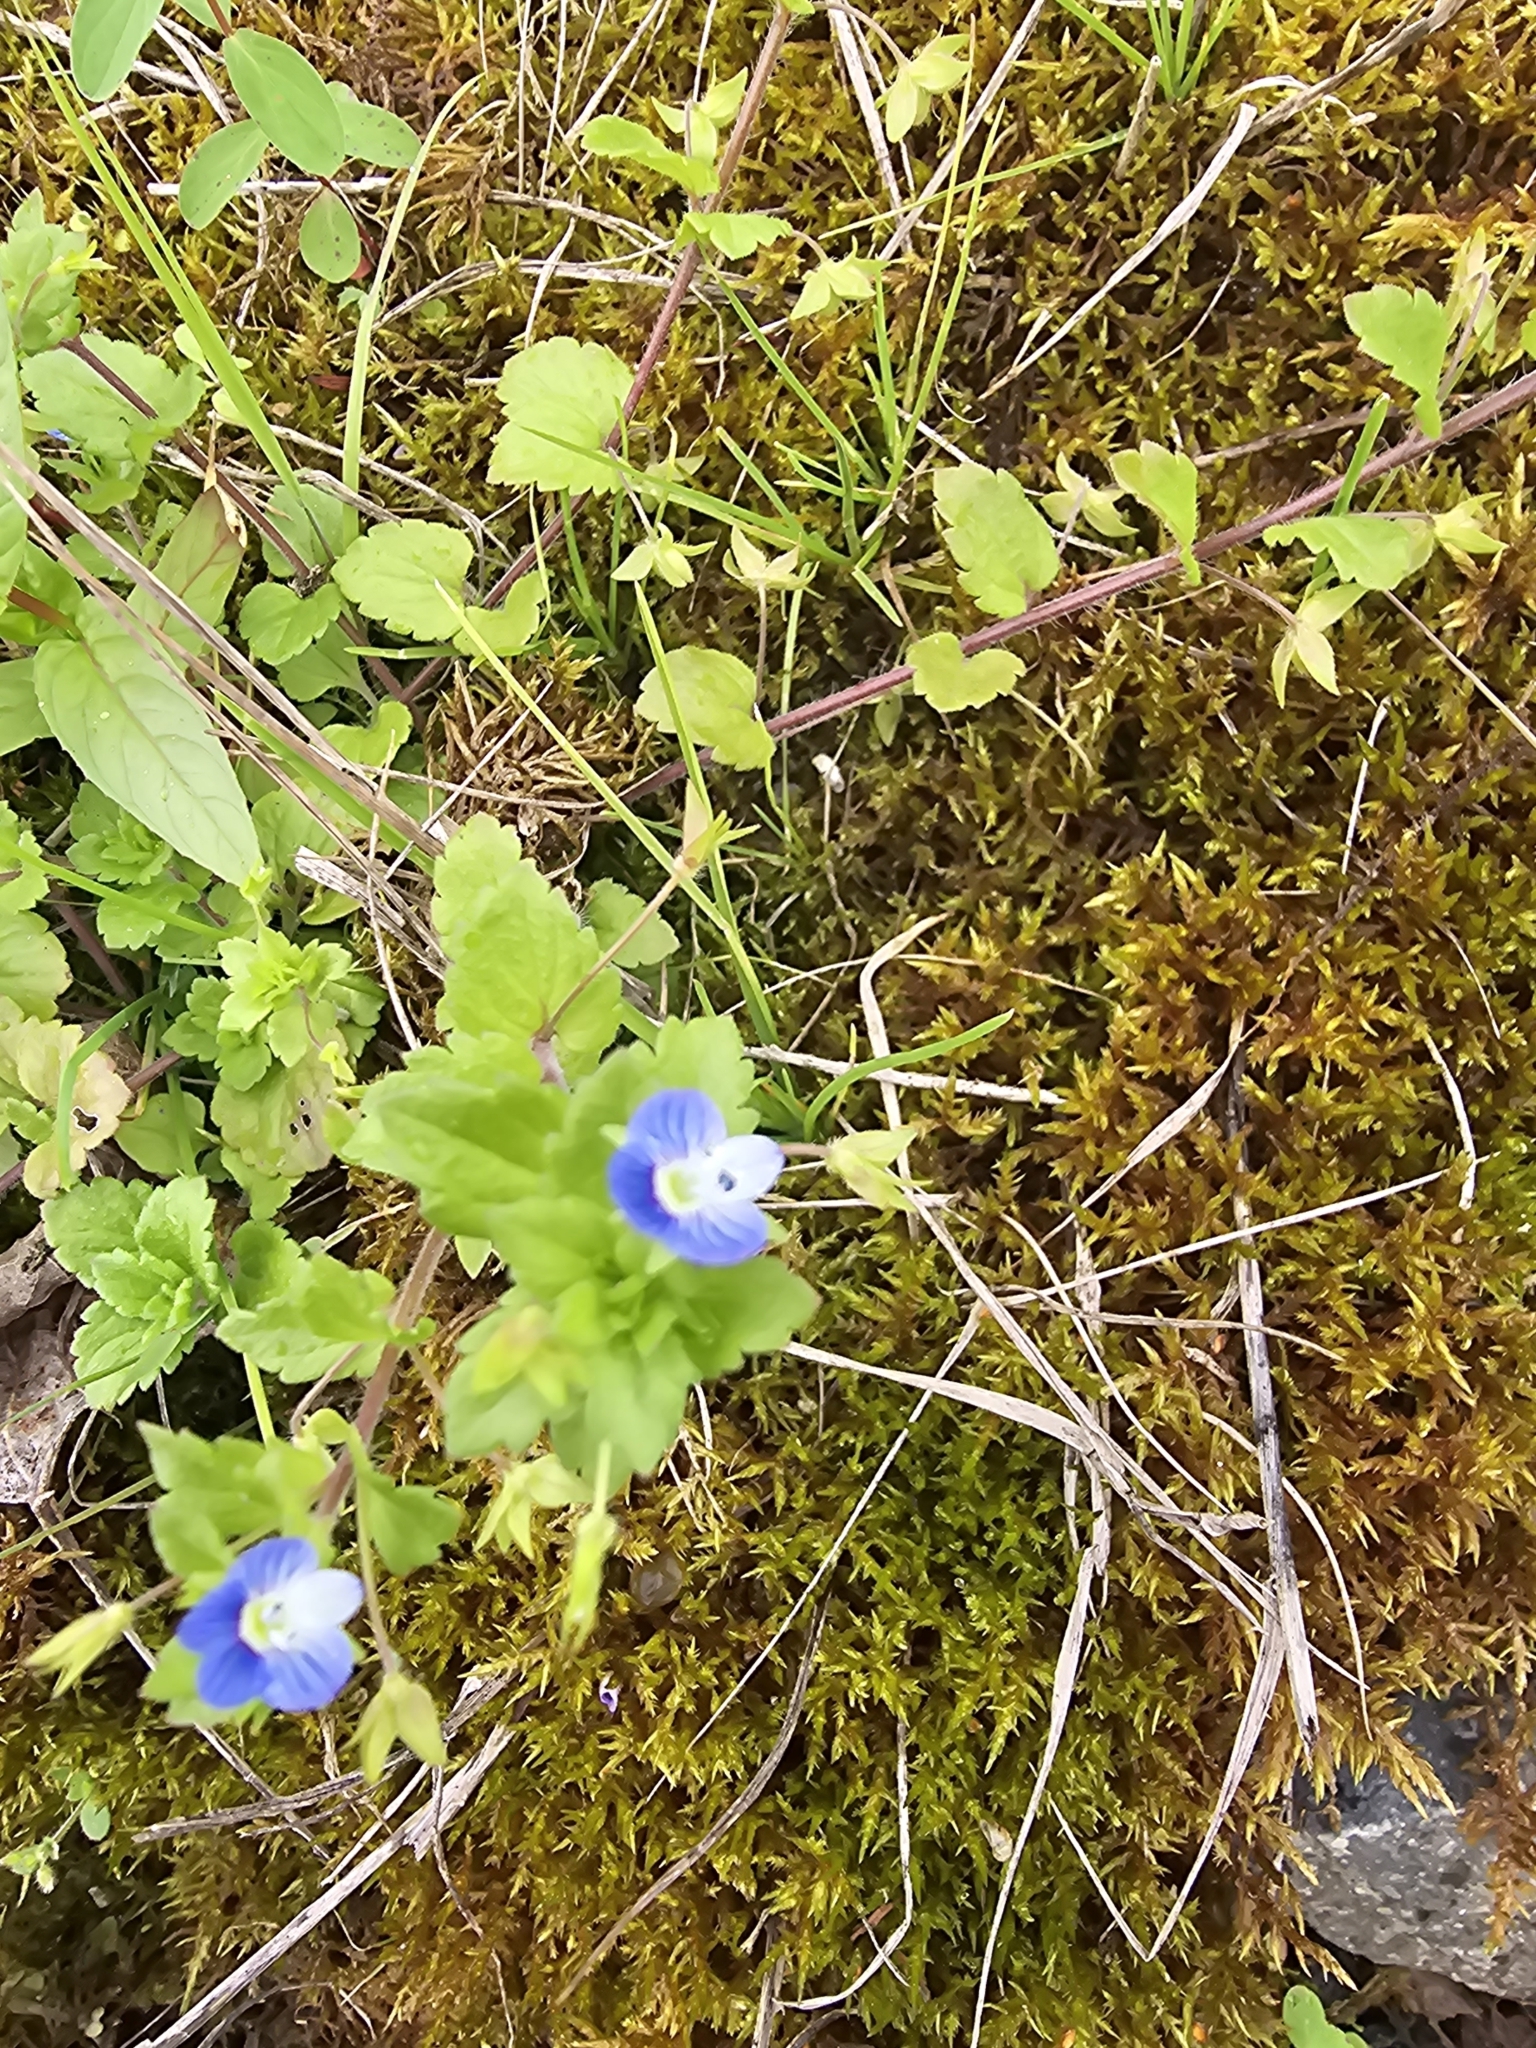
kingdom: Plantae
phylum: Tracheophyta
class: Magnoliopsida
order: Lamiales
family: Plantaginaceae
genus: Veronica
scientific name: Veronica persica
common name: Common field-speedwell
